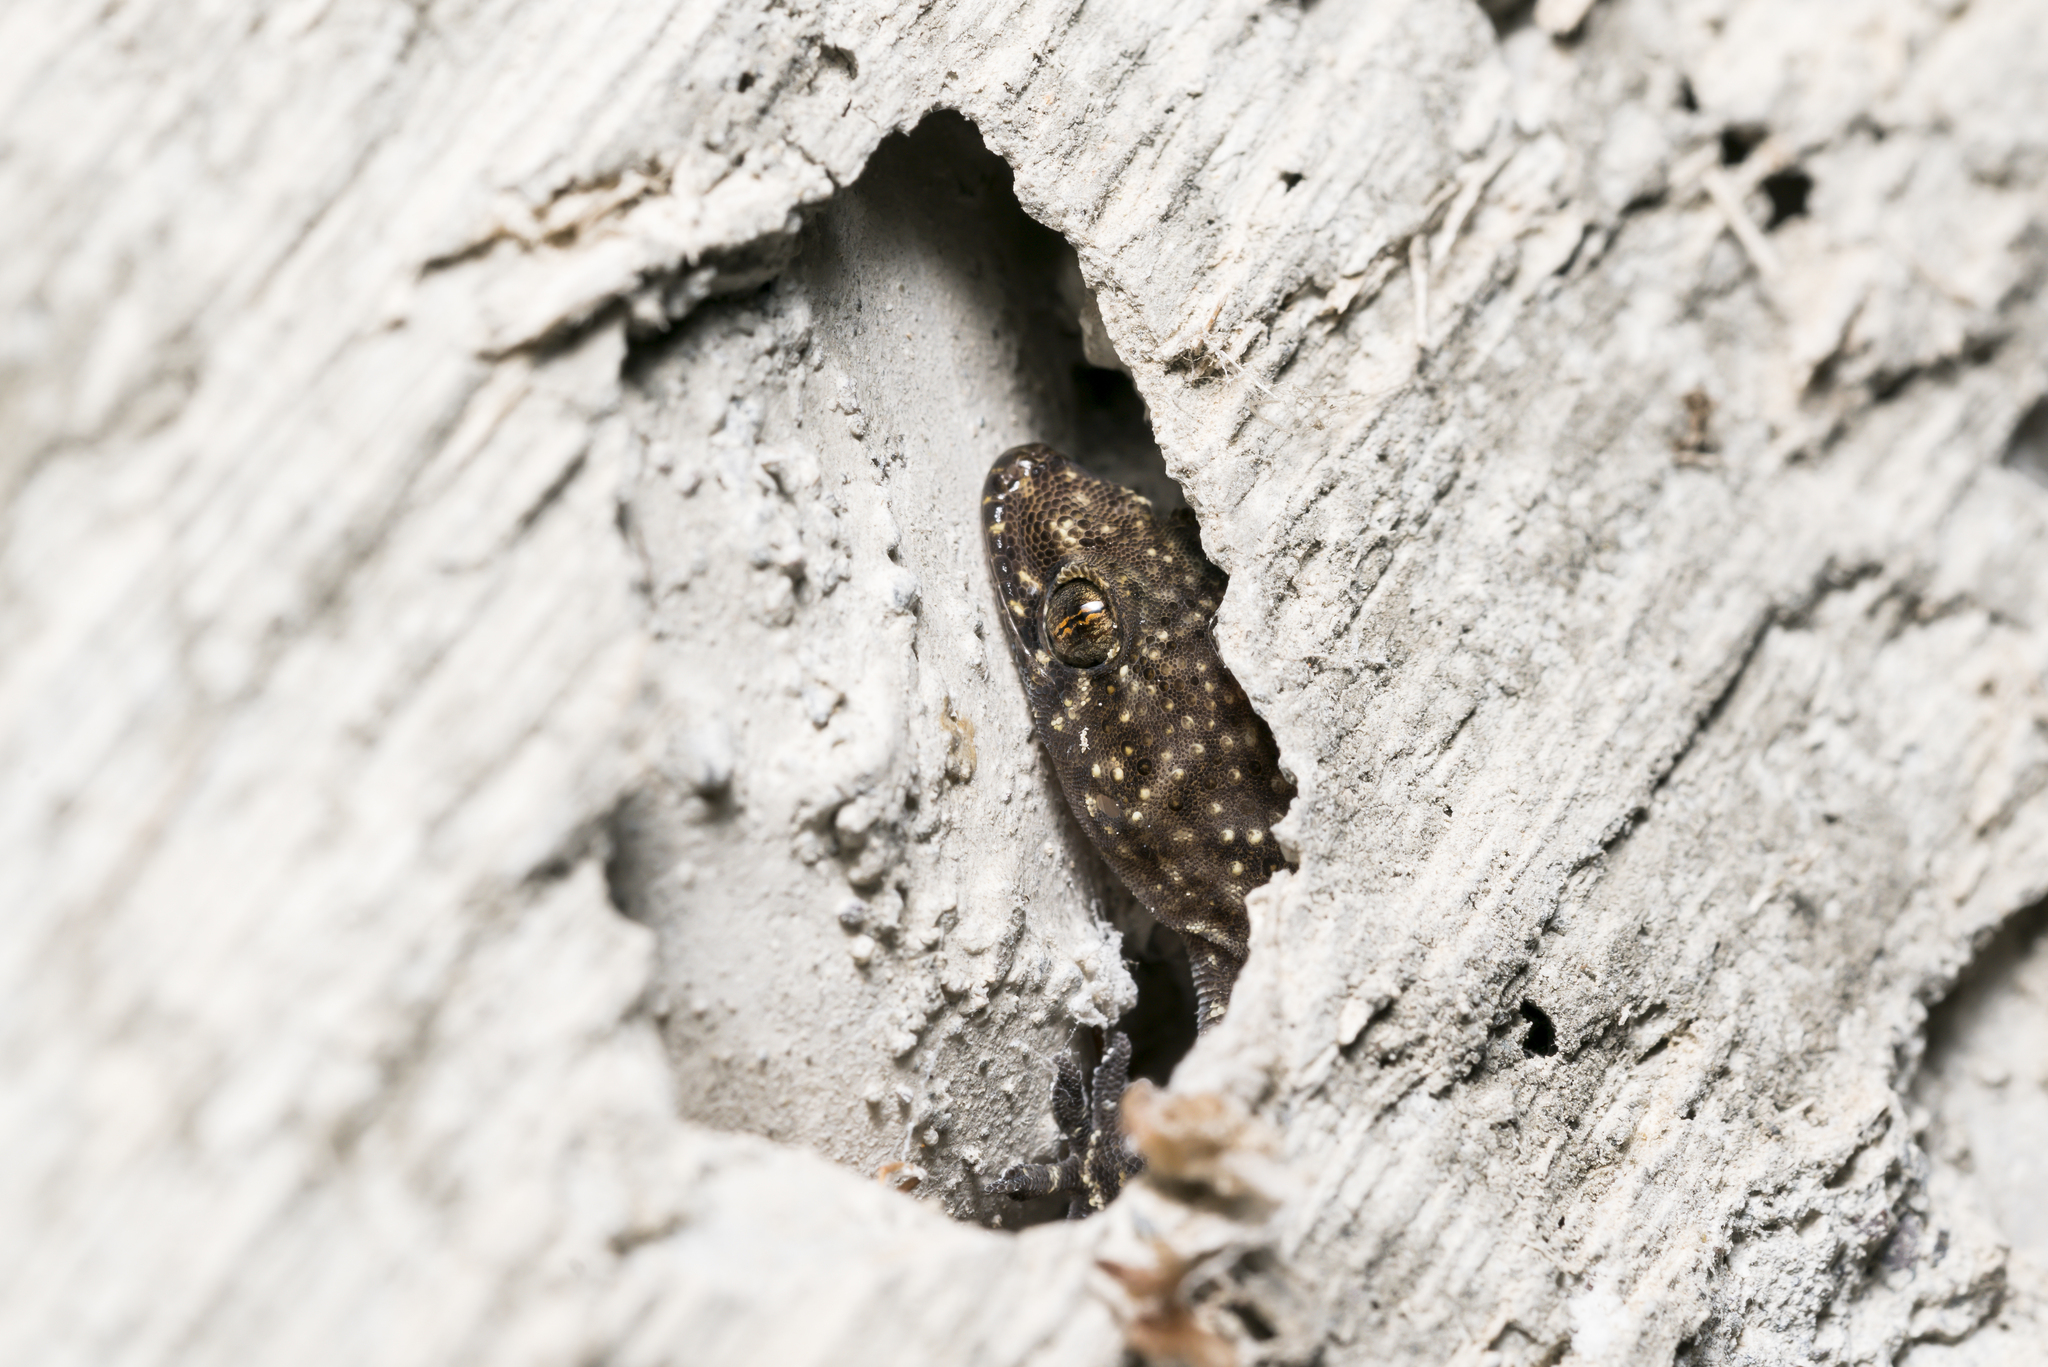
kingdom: Animalia
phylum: Chordata
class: Squamata
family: Gekkonidae
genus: Hemidactylus
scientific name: Hemidactylus turcicus
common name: Turkish gecko
